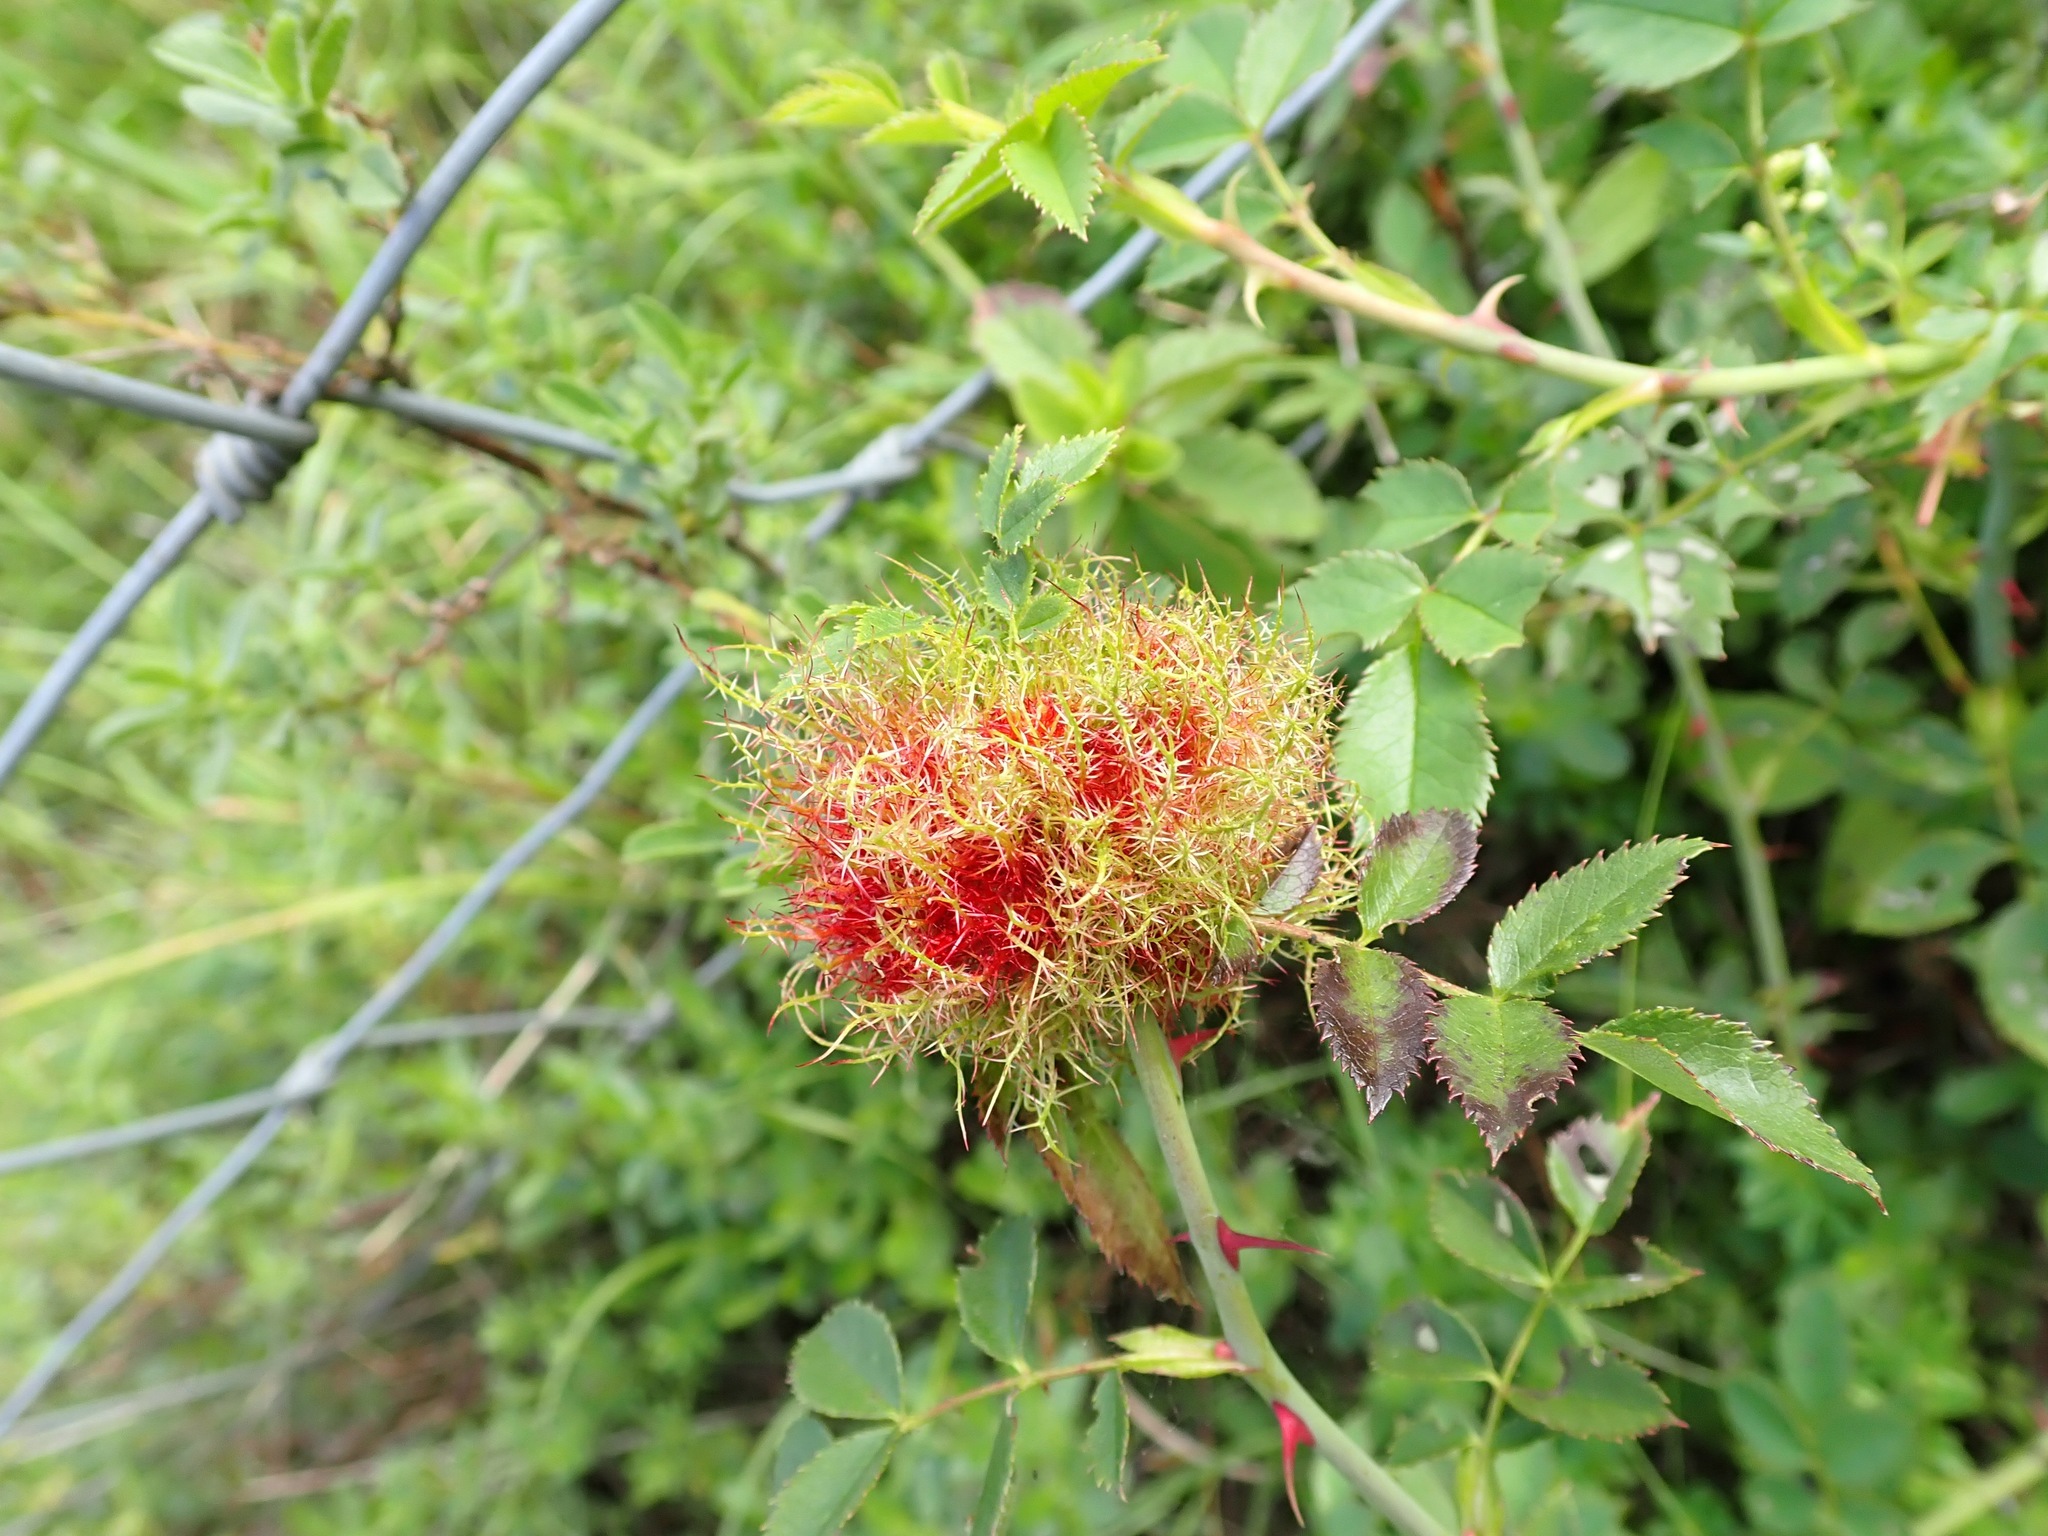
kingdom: Animalia
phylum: Arthropoda
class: Insecta
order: Hymenoptera
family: Cynipidae
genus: Diplolepis
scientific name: Diplolepis rosae
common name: Bedeguar gall
